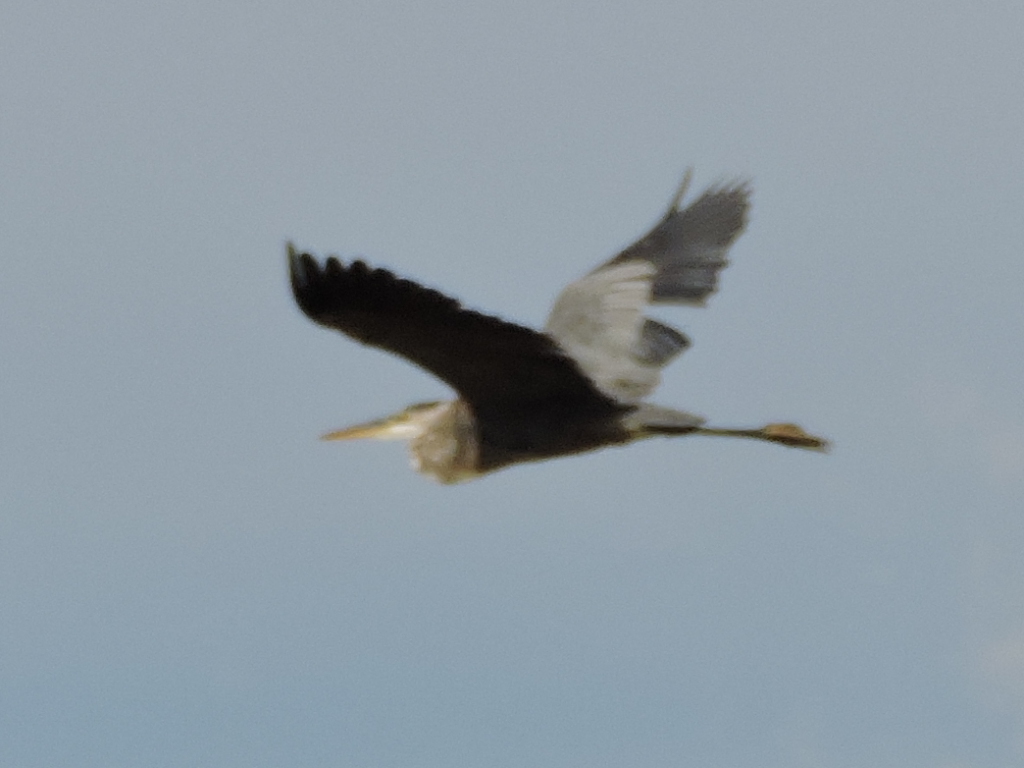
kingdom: Animalia
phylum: Chordata
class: Aves
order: Pelecaniformes
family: Ardeidae
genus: Ardea
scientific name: Ardea herodias
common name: Great blue heron
